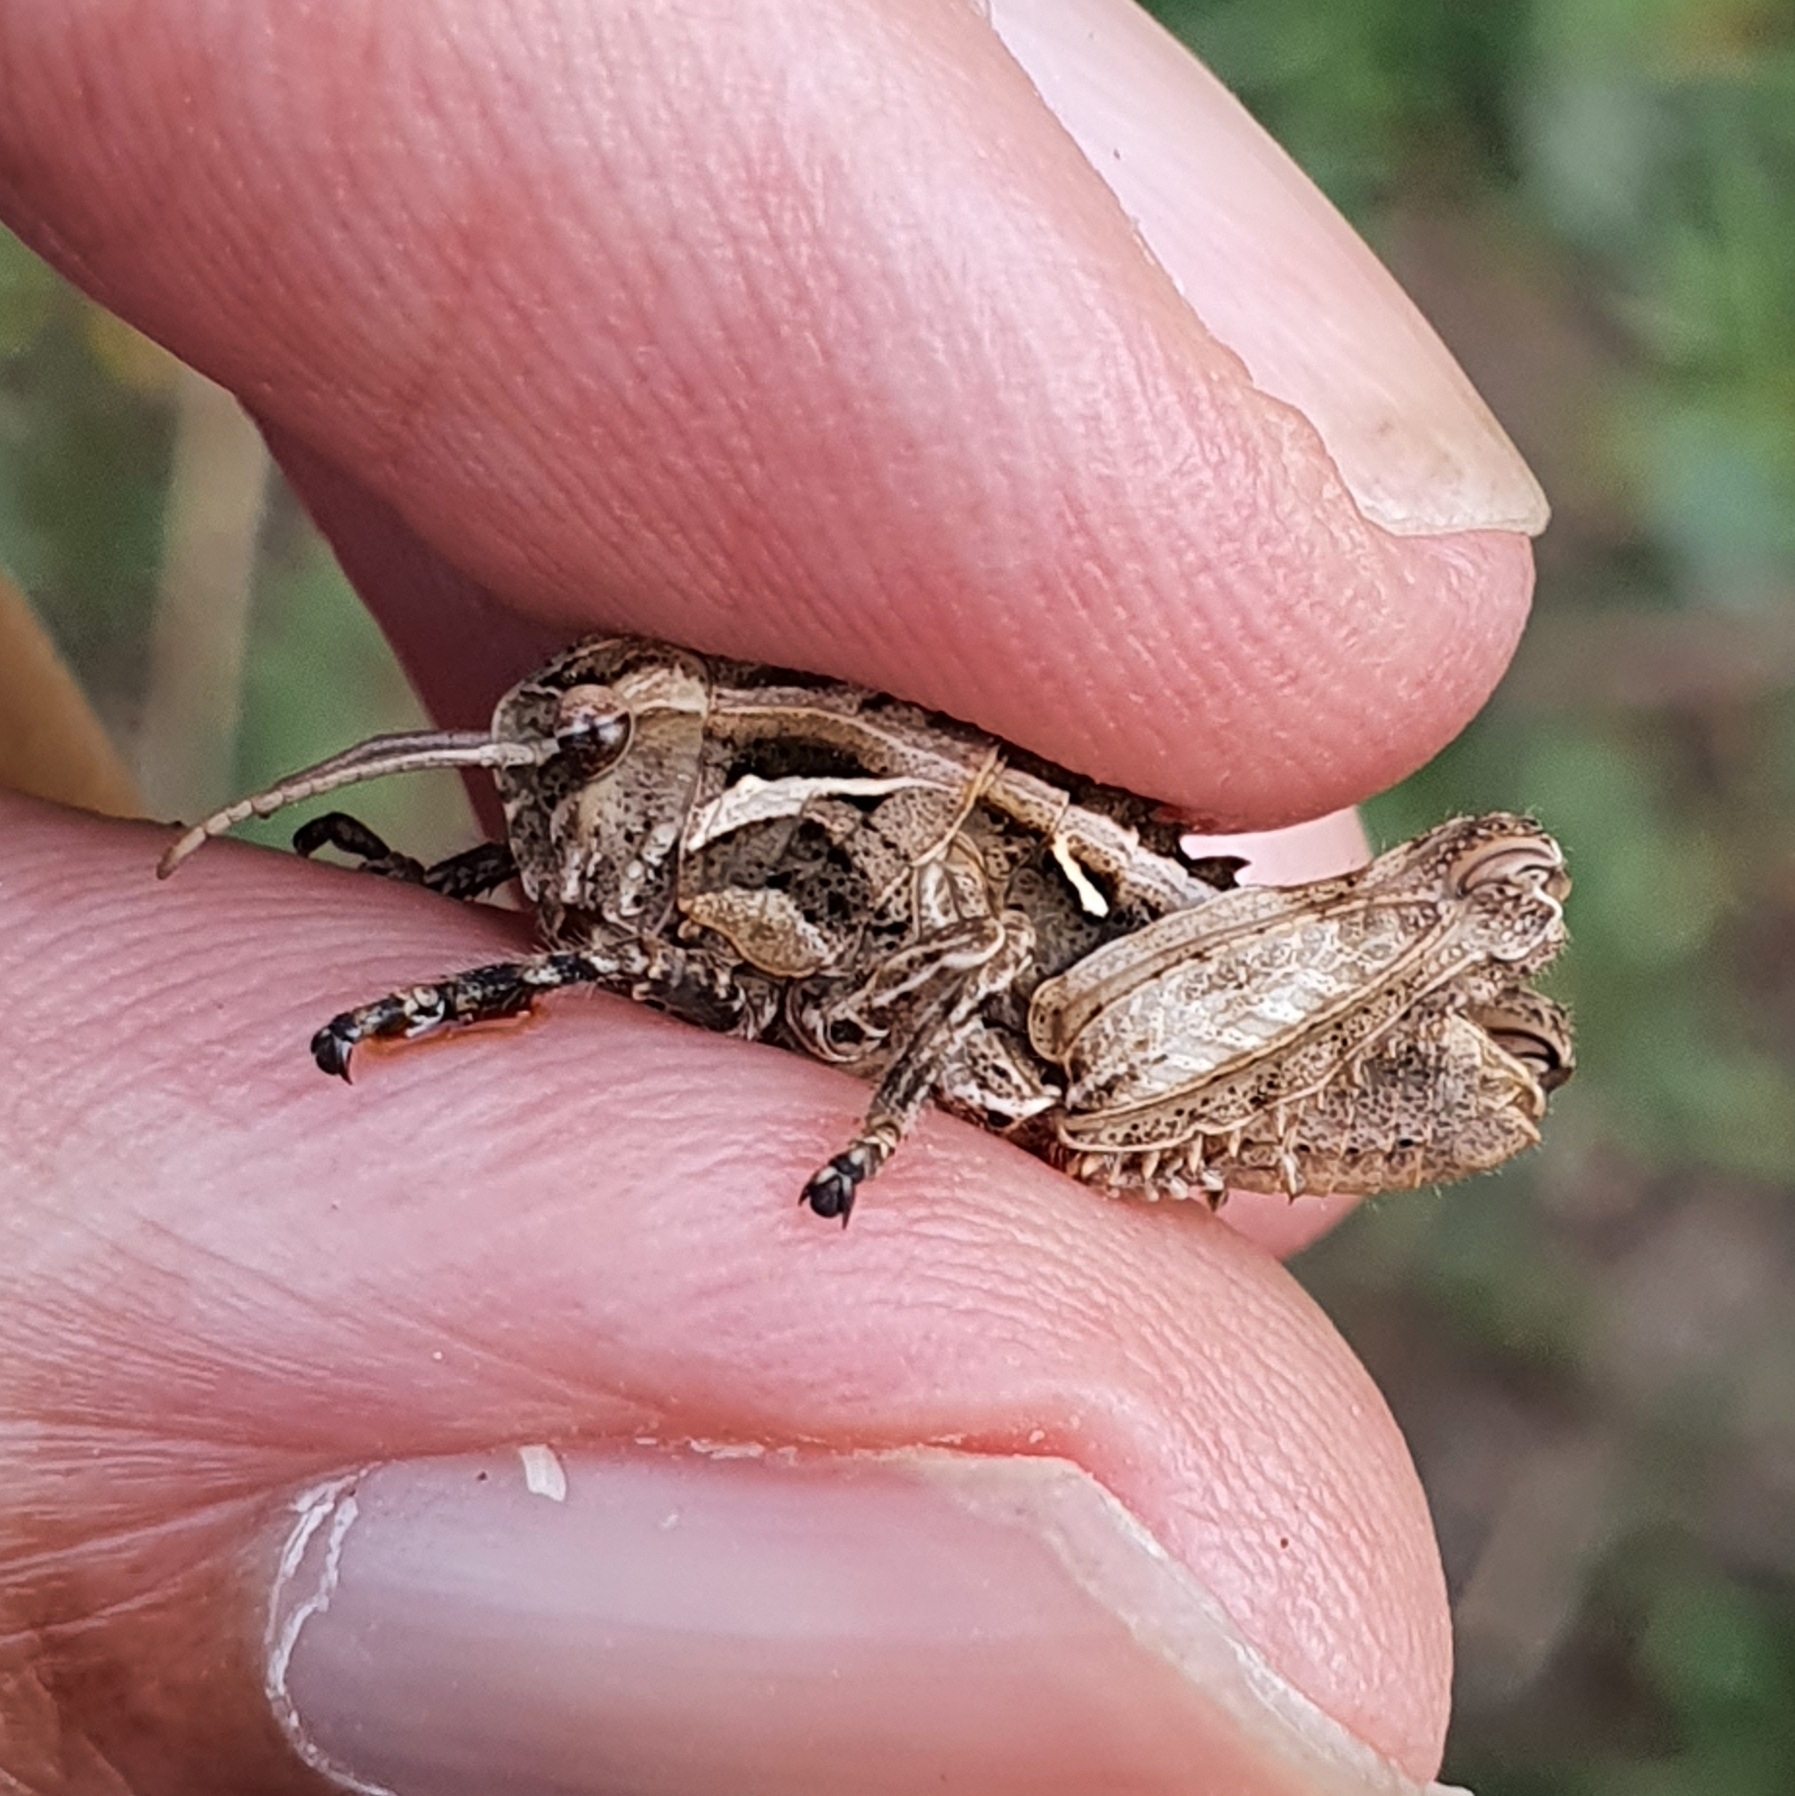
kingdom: Animalia
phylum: Arthropoda
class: Insecta
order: Orthoptera
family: Pamphagidae
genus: Pamphagus
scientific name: Pamphagus milevitanus
